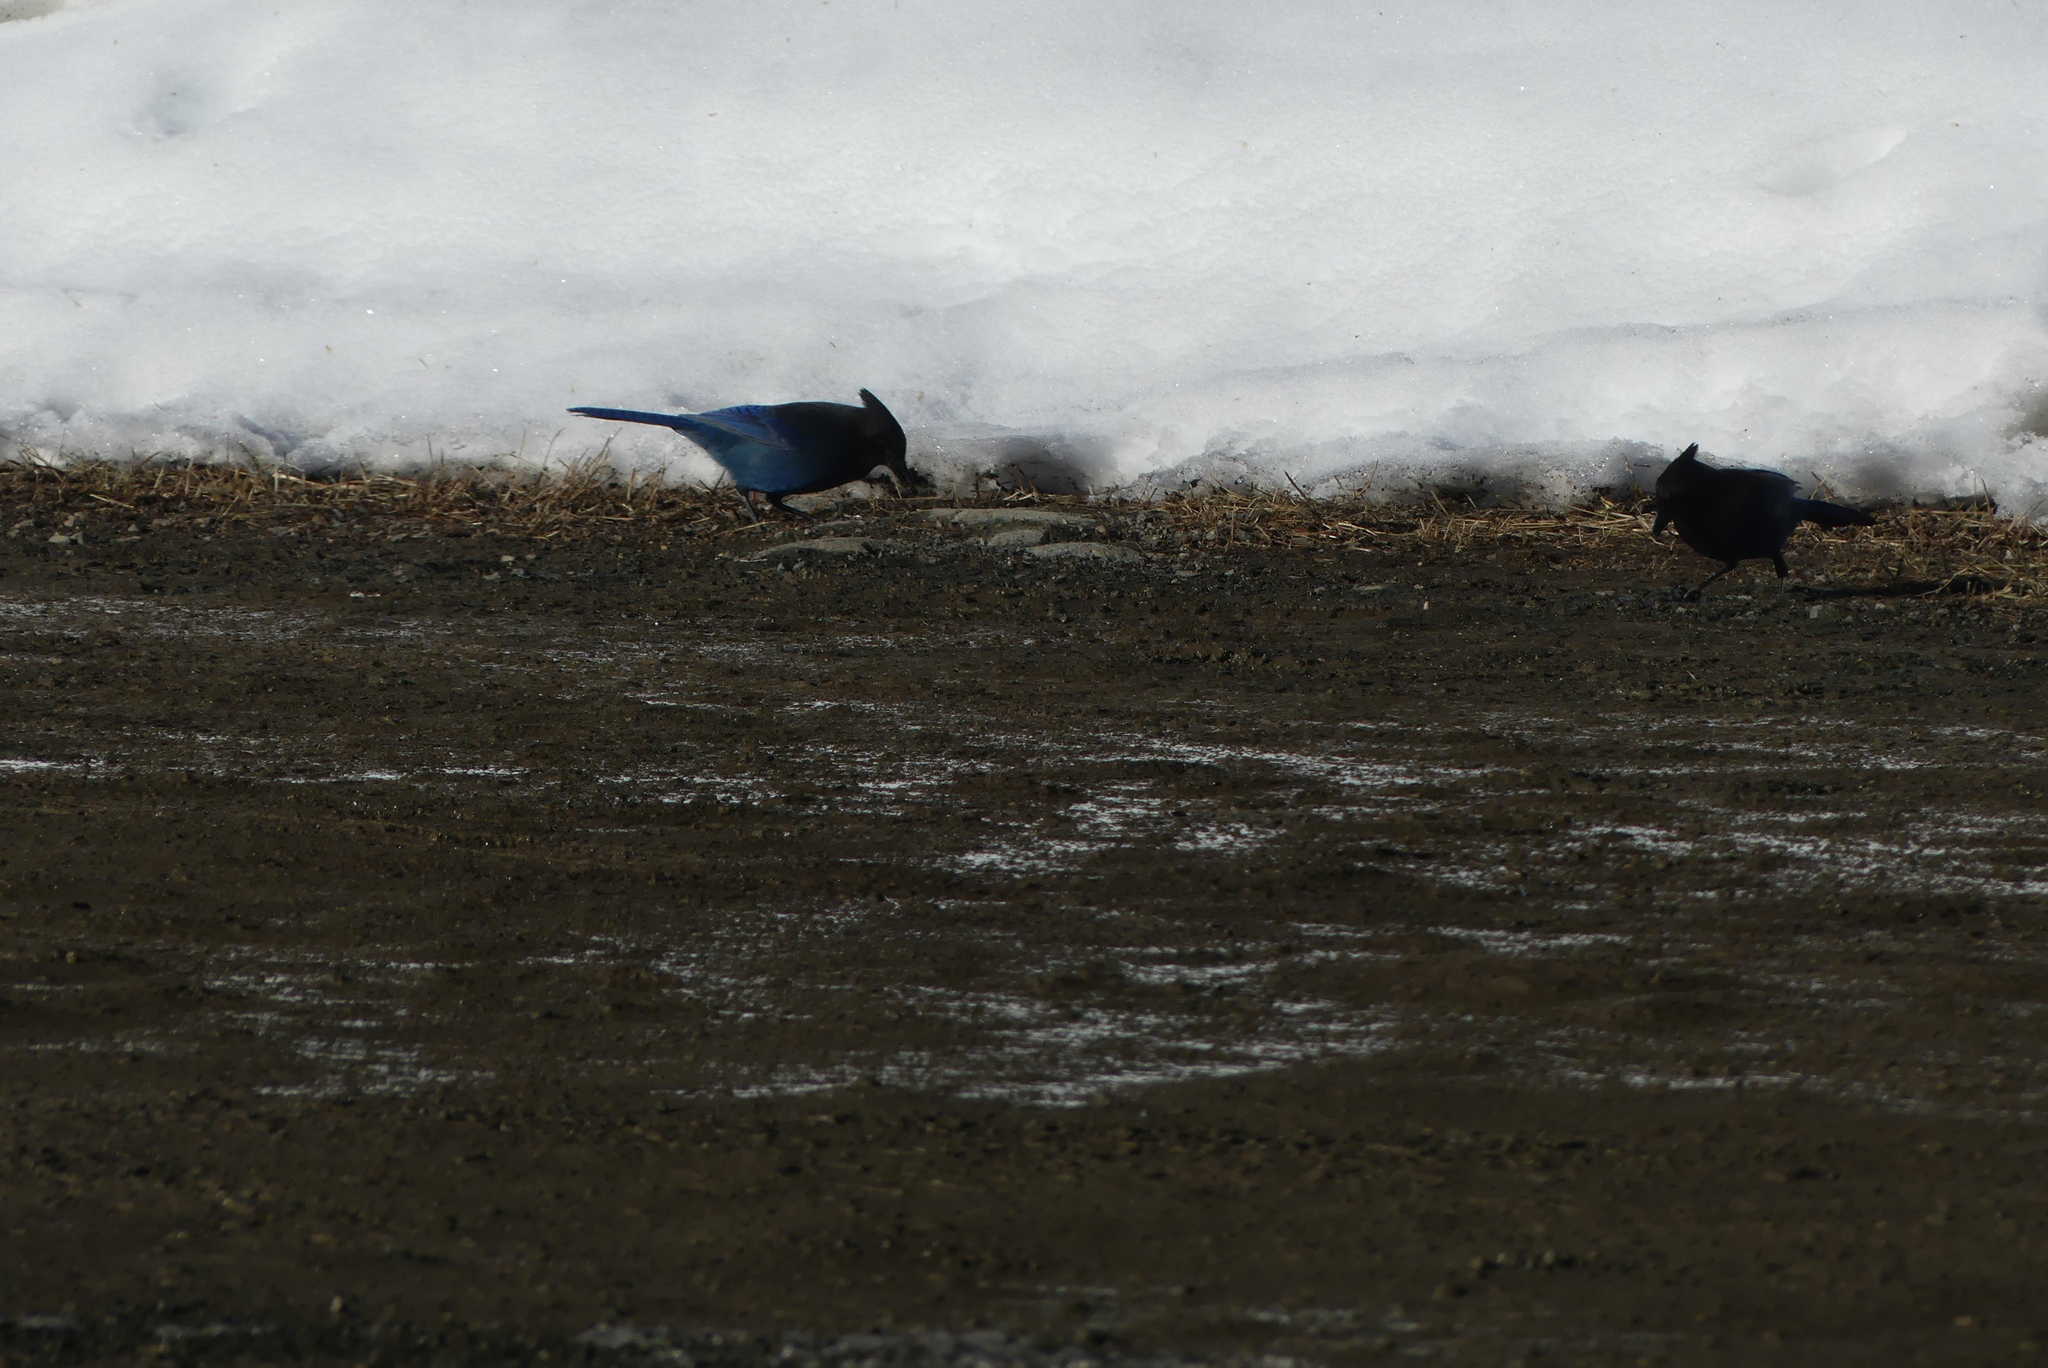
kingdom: Animalia
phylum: Chordata
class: Aves
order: Passeriformes
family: Corvidae
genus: Cyanocitta
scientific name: Cyanocitta stelleri
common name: Steller's jay
